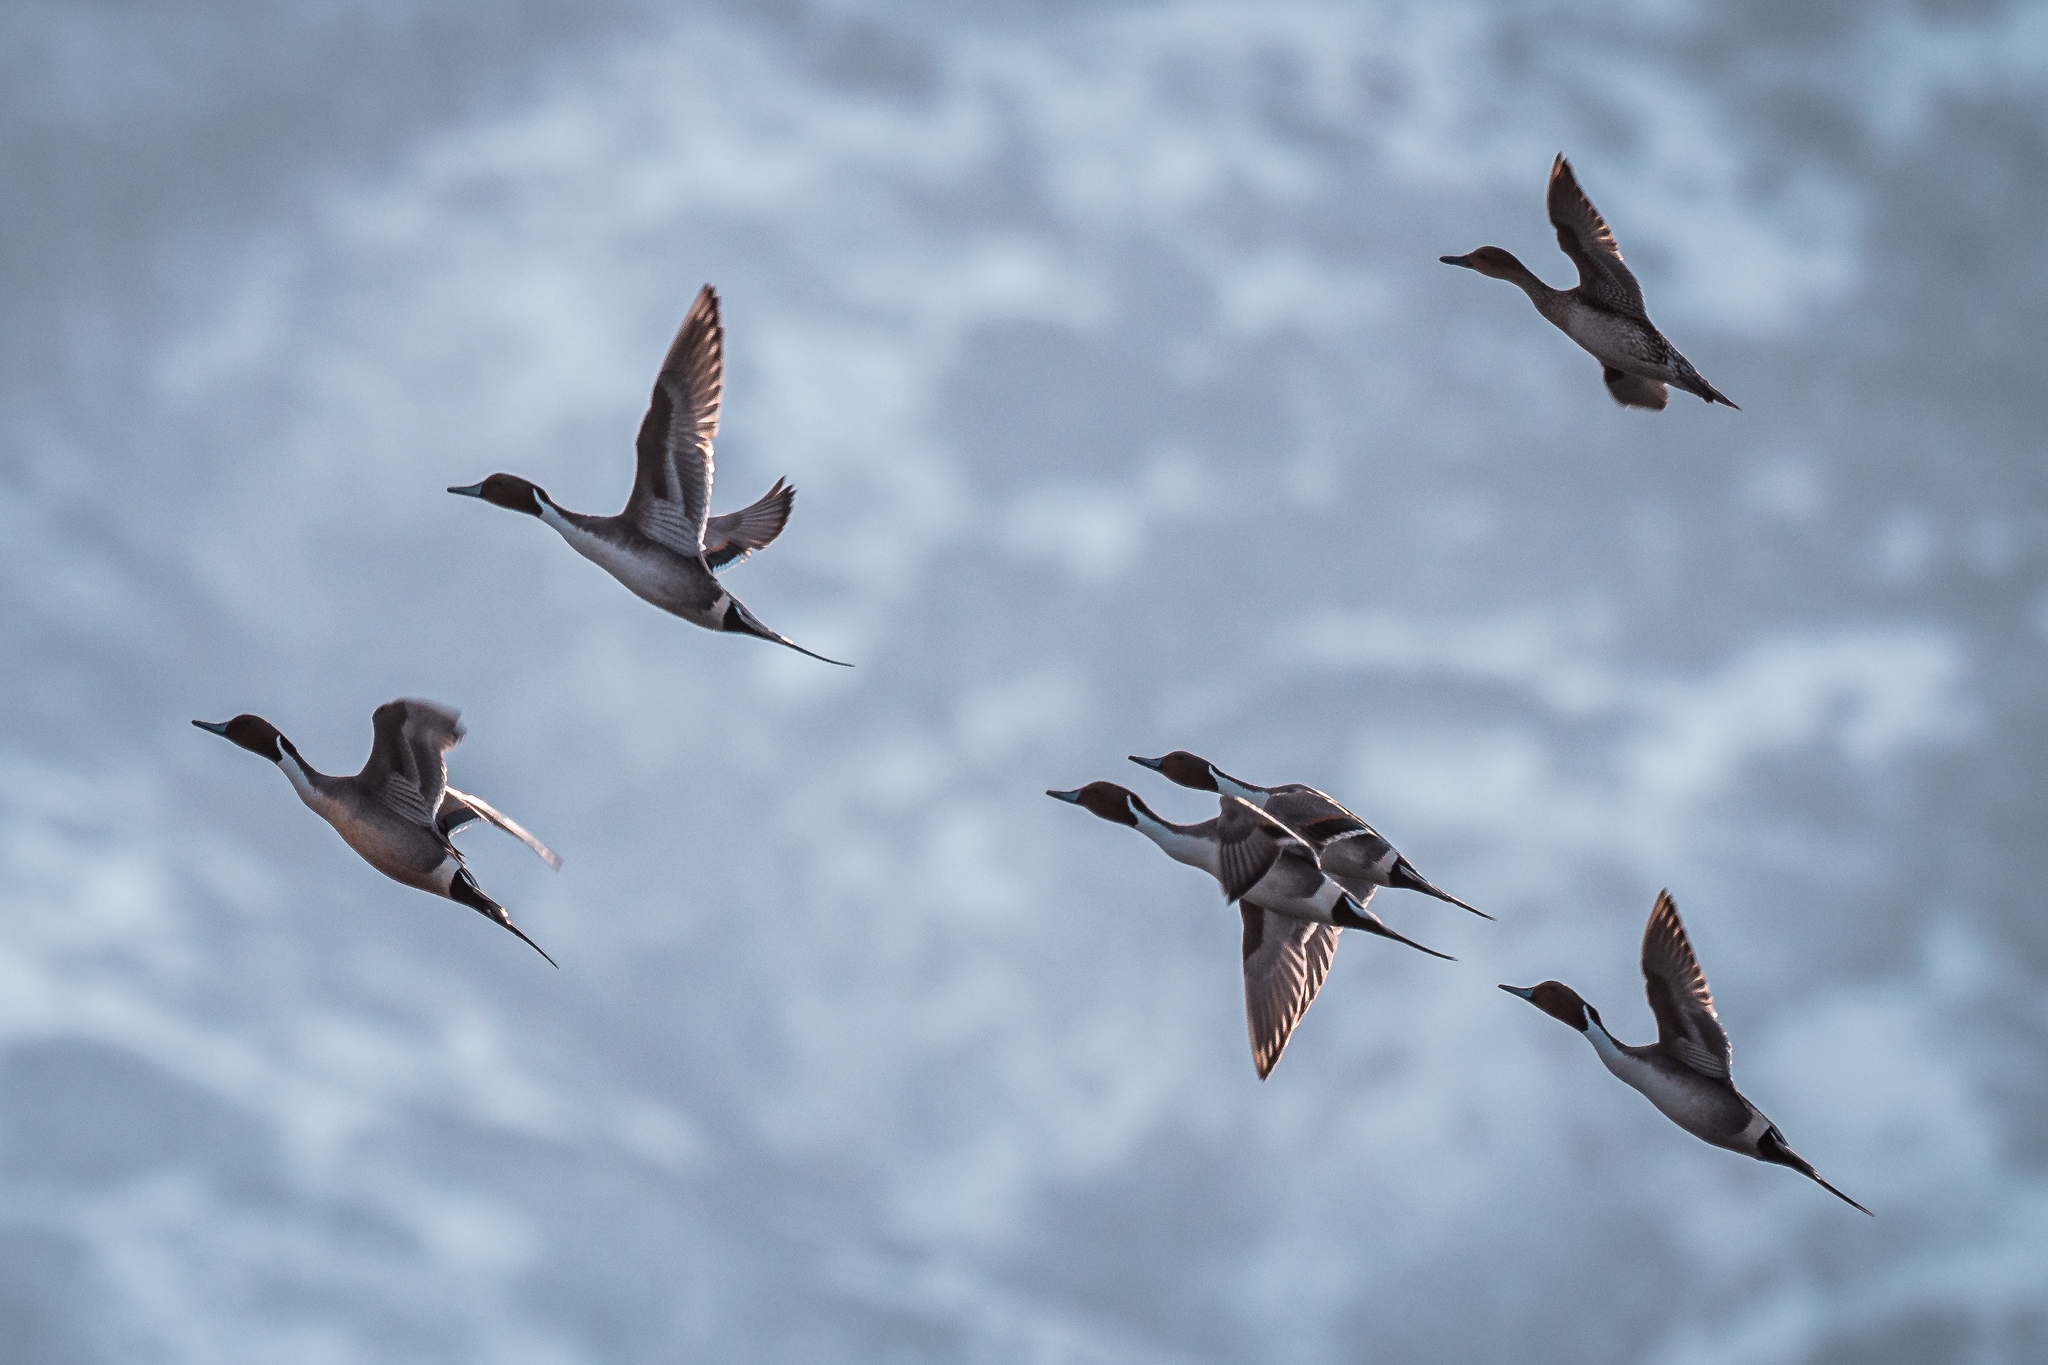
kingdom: Animalia
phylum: Chordata
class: Aves
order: Anseriformes
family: Anatidae
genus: Anas
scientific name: Anas acuta
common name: Northern pintail
